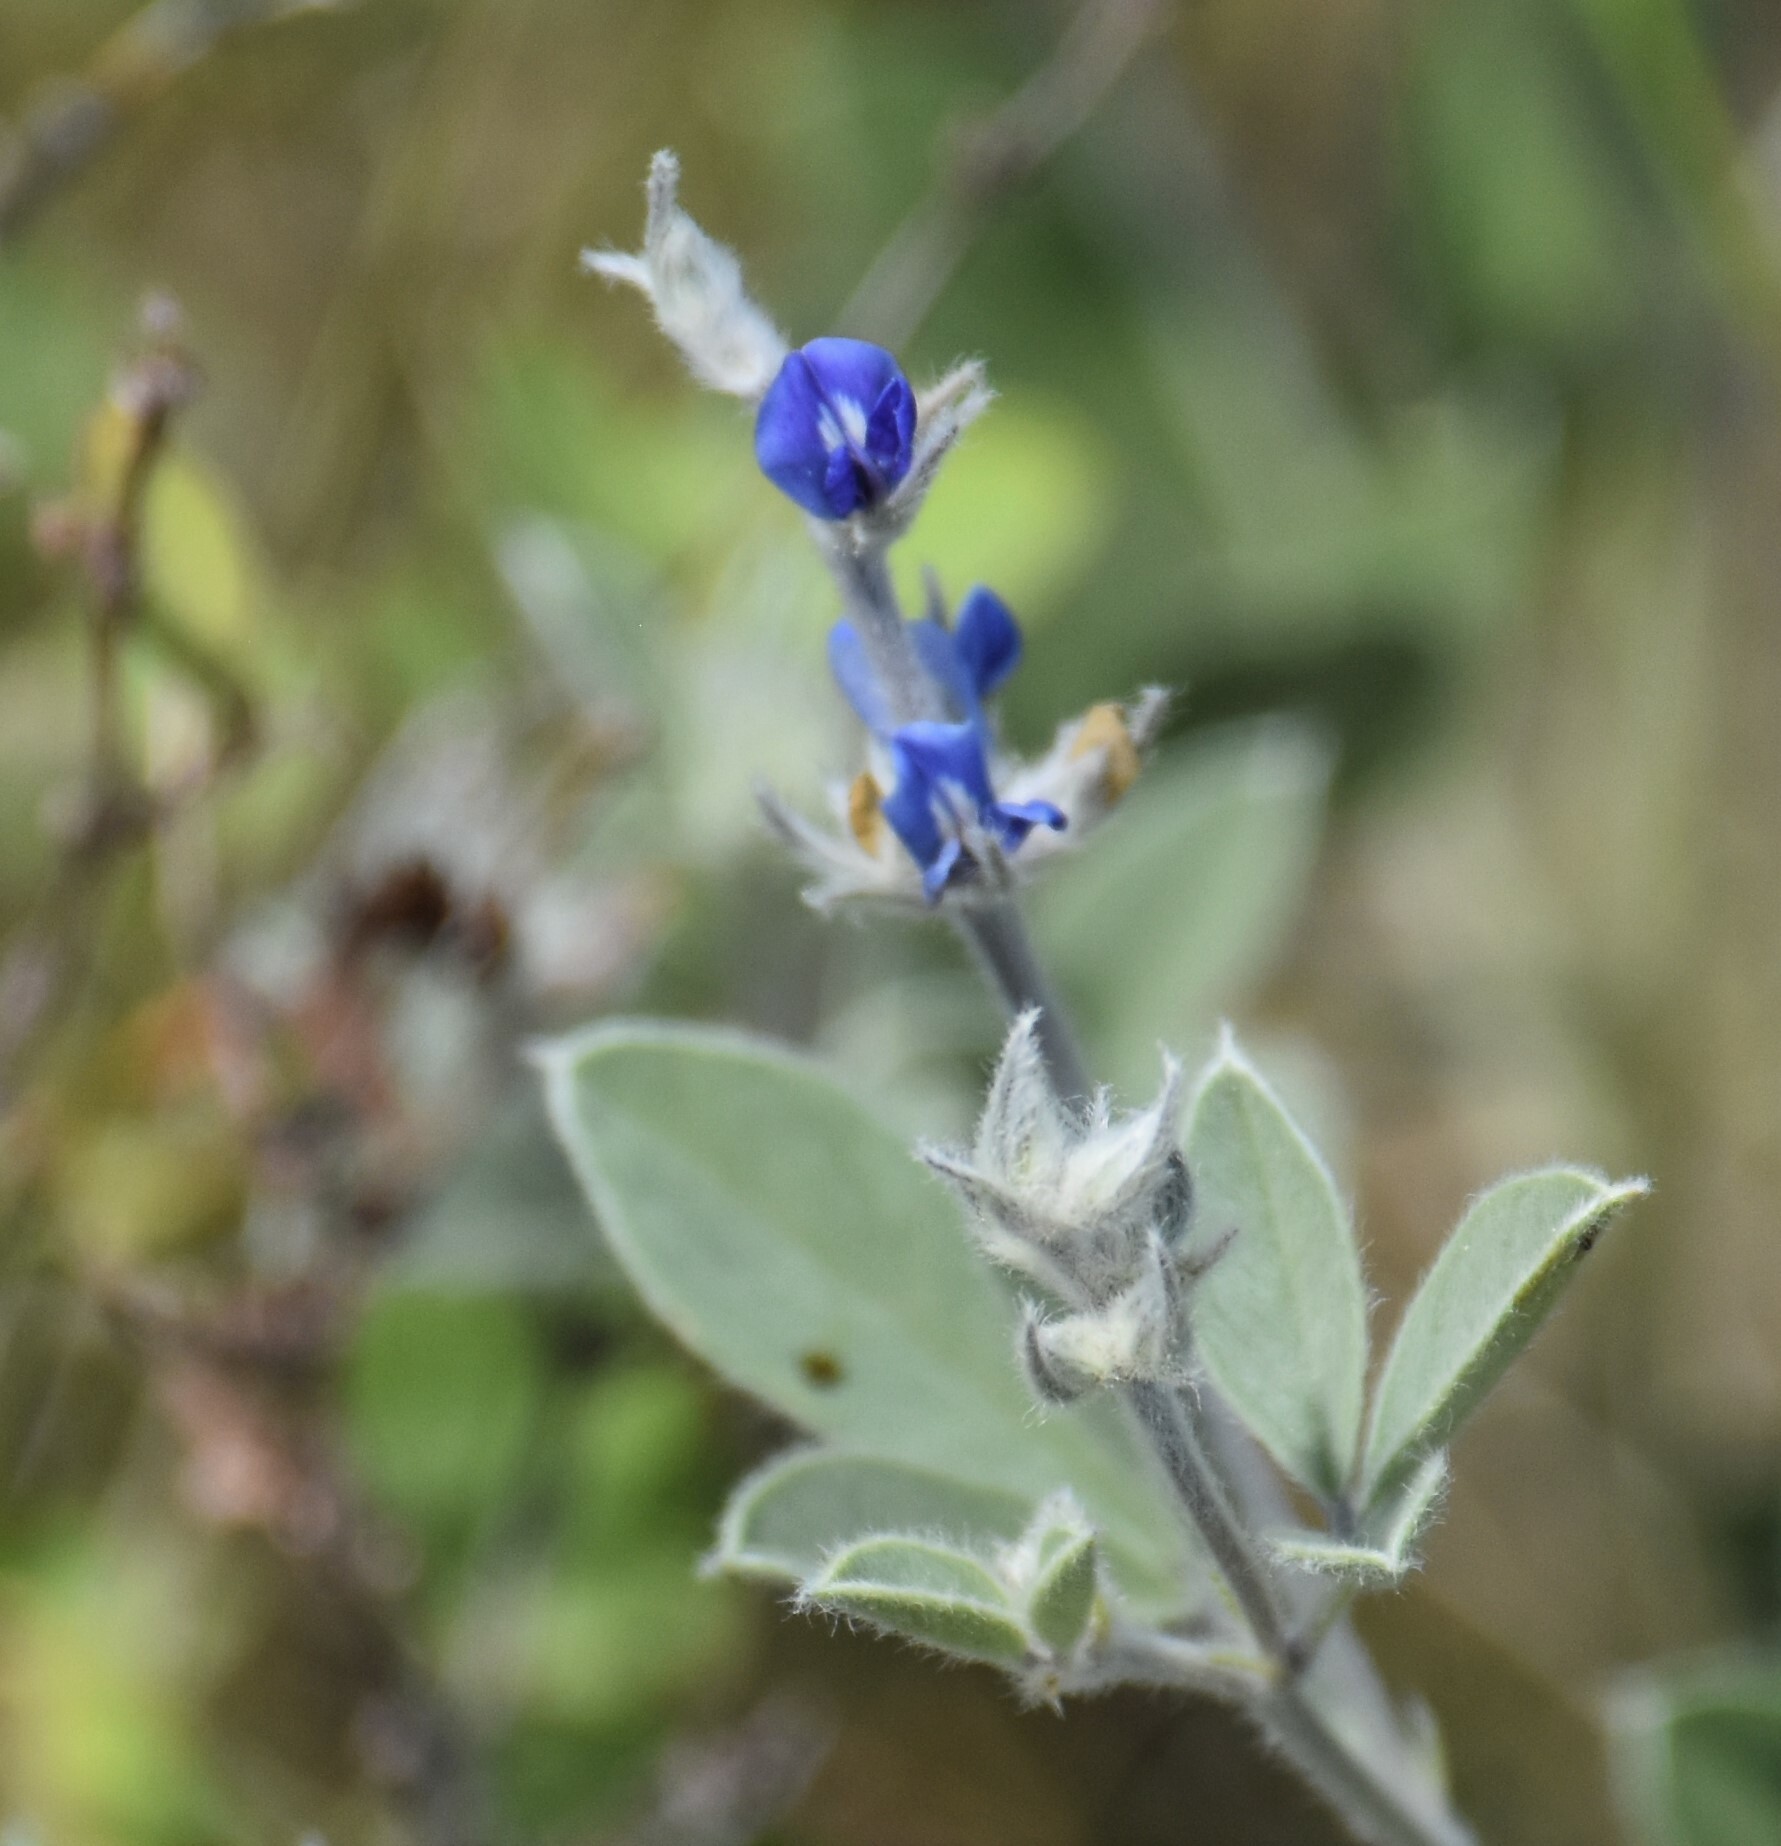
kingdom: Plantae
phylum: Tracheophyta
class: Magnoliopsida
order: Fabales
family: Fabaceae
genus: Pediomelum
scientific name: Pediomelum argophyllum
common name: Silver-leaved indian breadroot
